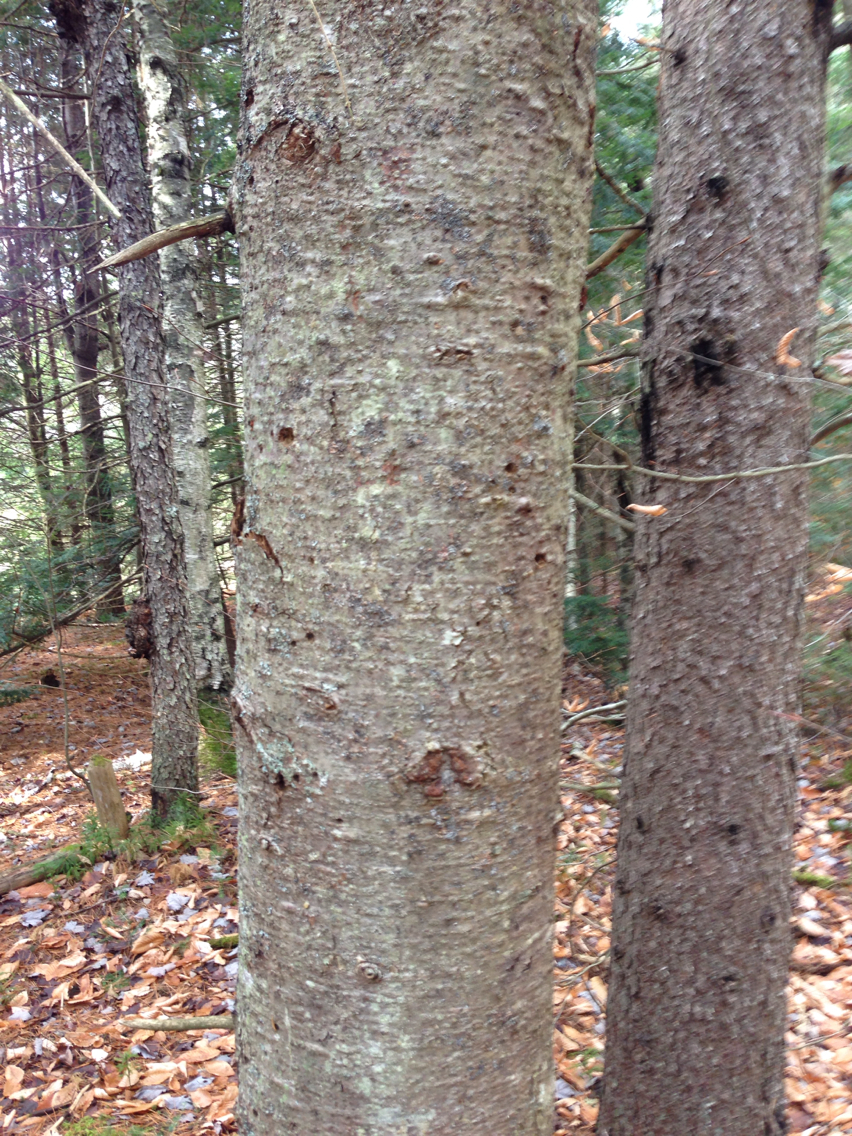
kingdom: Plantae
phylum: Tracheophyta
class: Pinopsida
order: Pinales
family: Pinaceae
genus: Abies
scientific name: Abies balsamea
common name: Balsam fir
